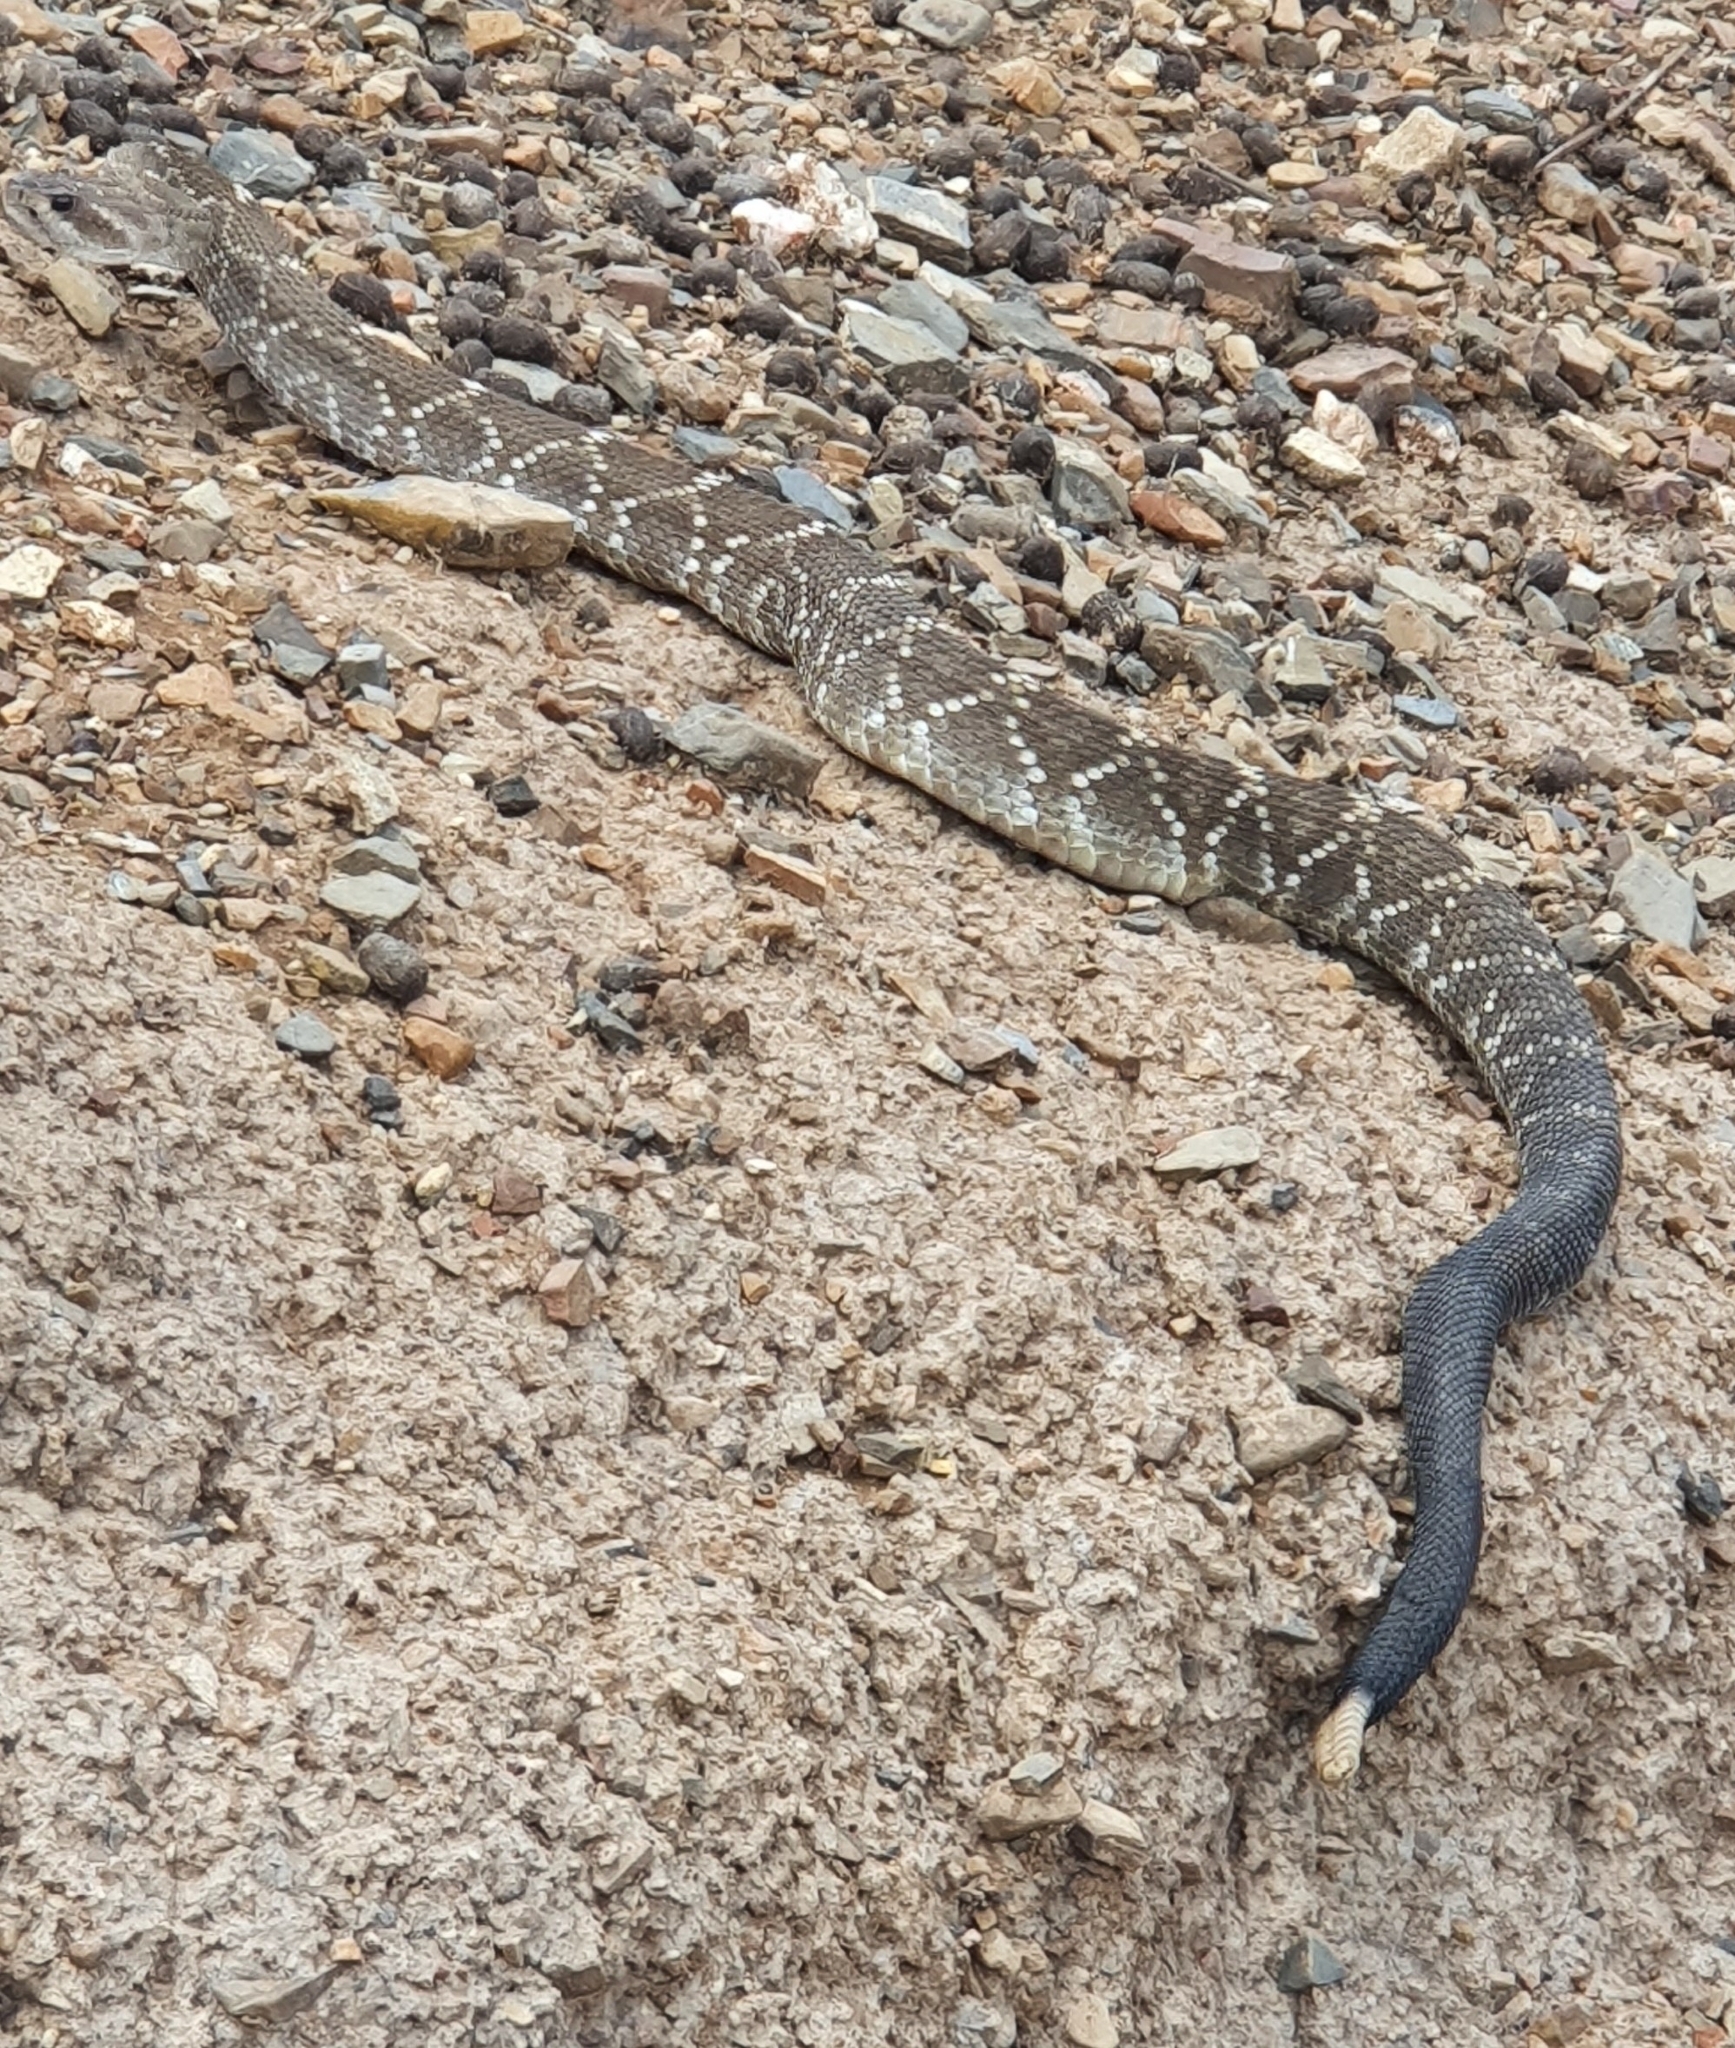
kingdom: Animalia
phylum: Chordata
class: Squamata
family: Viperidae
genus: Crotalus
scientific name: Crotalus molossus
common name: Black tailed rattlesnake
